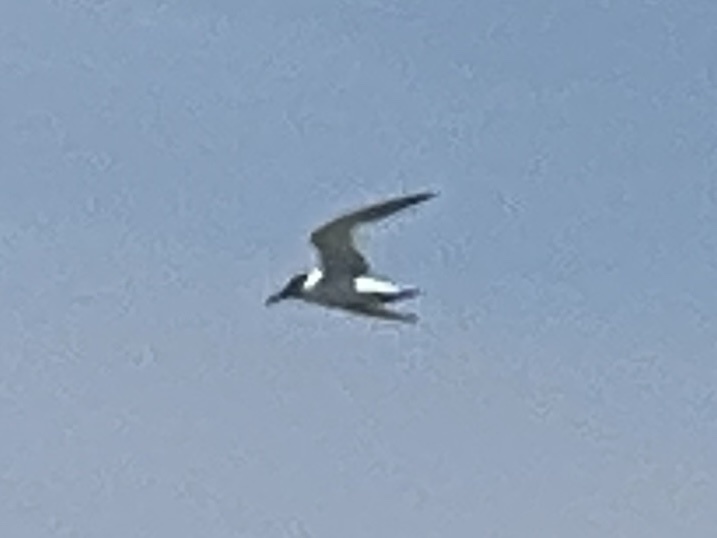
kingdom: Animalia
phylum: Chordata
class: Aves
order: Charadriiformes
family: Laridae
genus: Sternula
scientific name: Sternula antillarum
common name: Least tern
